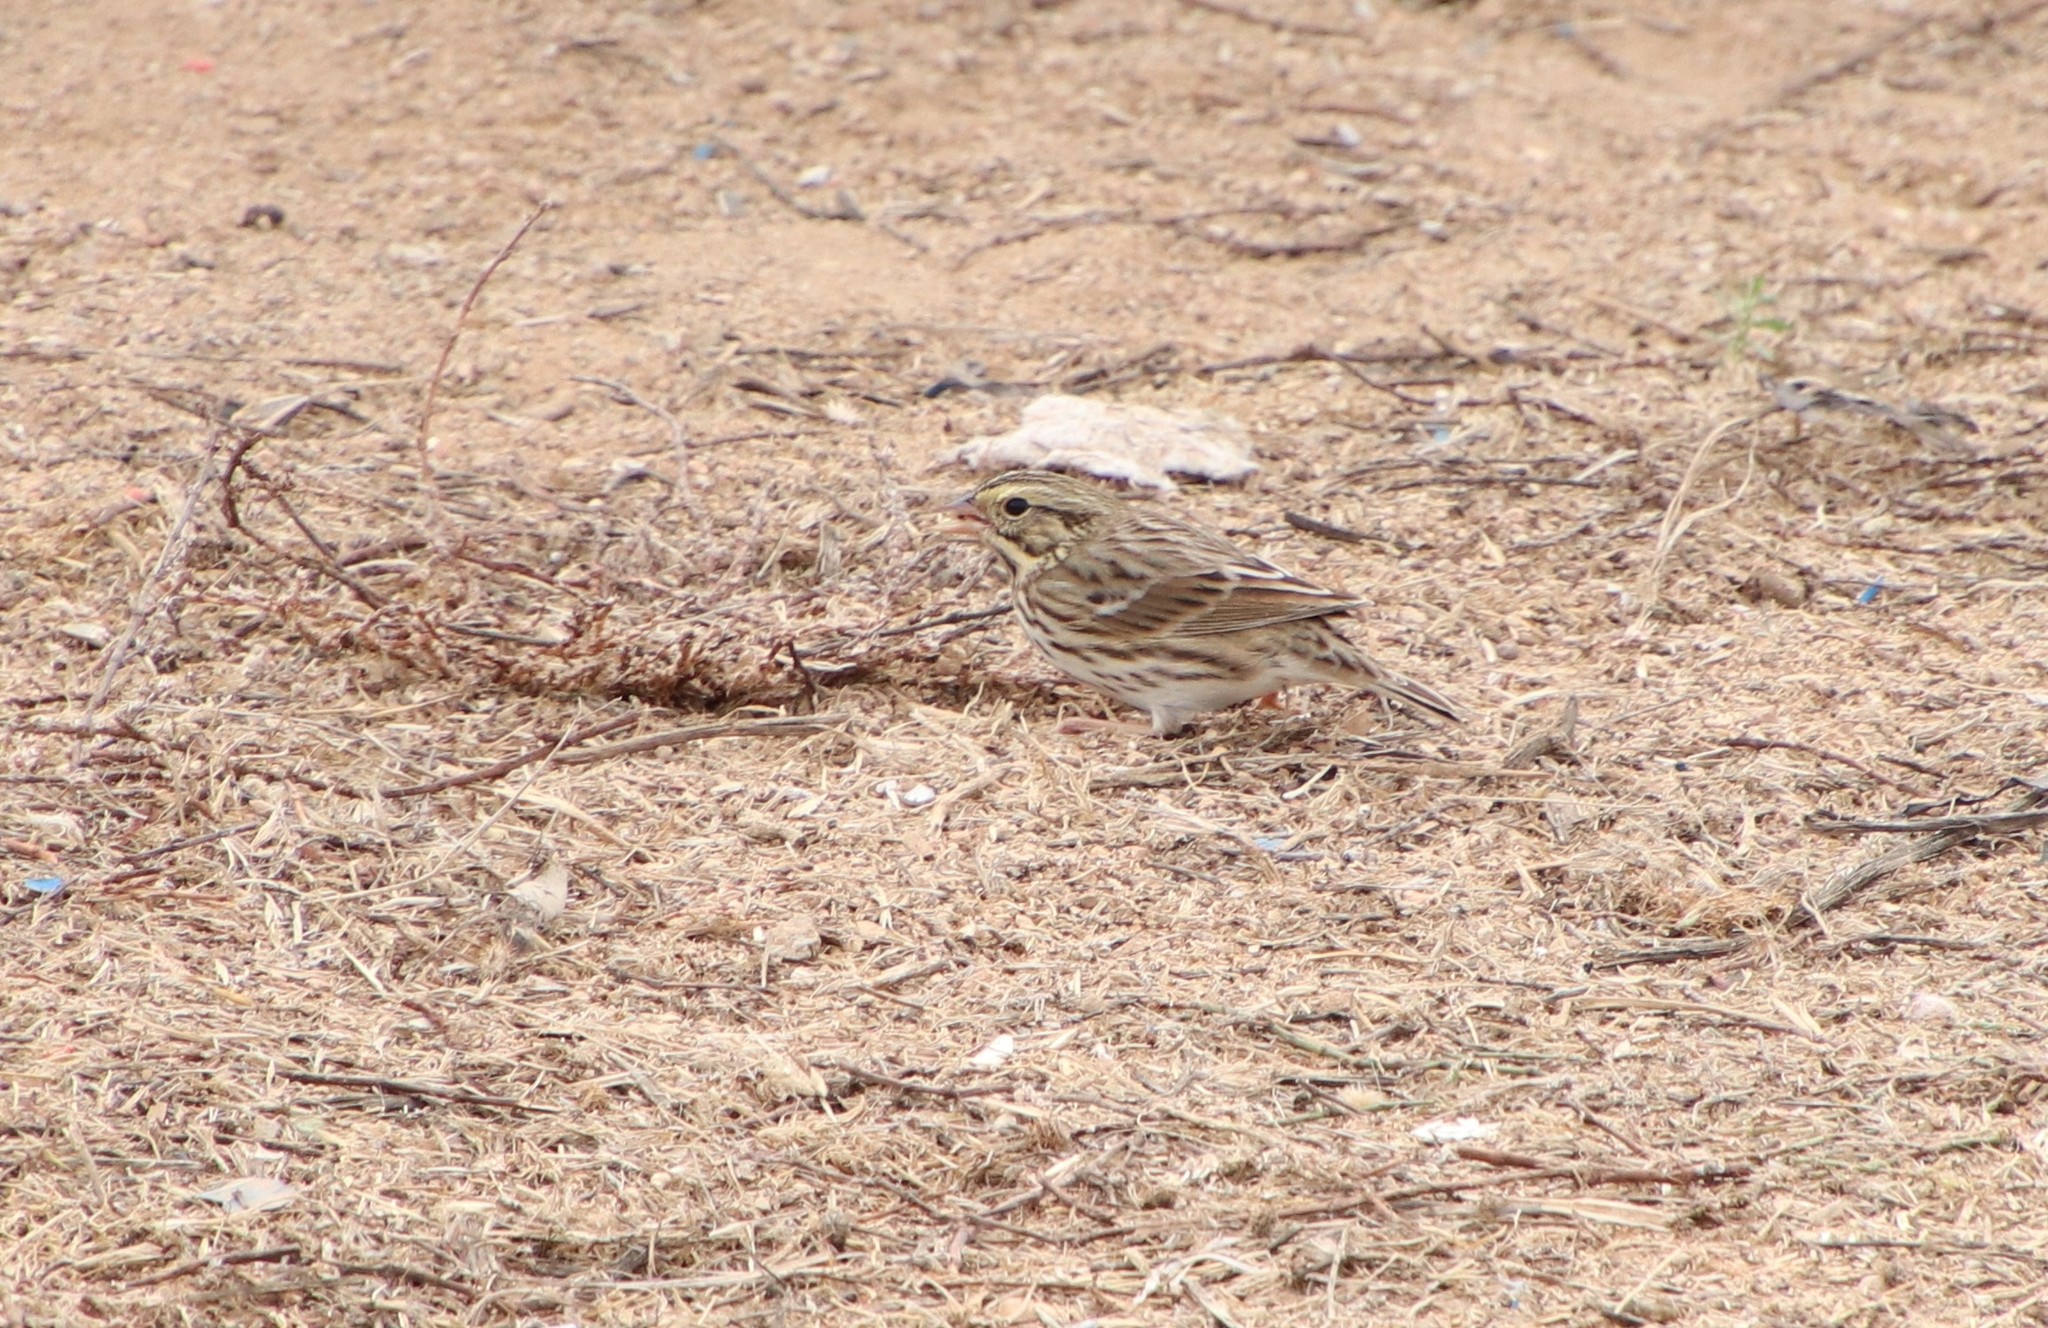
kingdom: Animalia
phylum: Chordata
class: Aves
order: Passeriformes
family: Passerellidae
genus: Passerculus
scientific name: Passerculus sandwichensis
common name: Savannah sparrow
